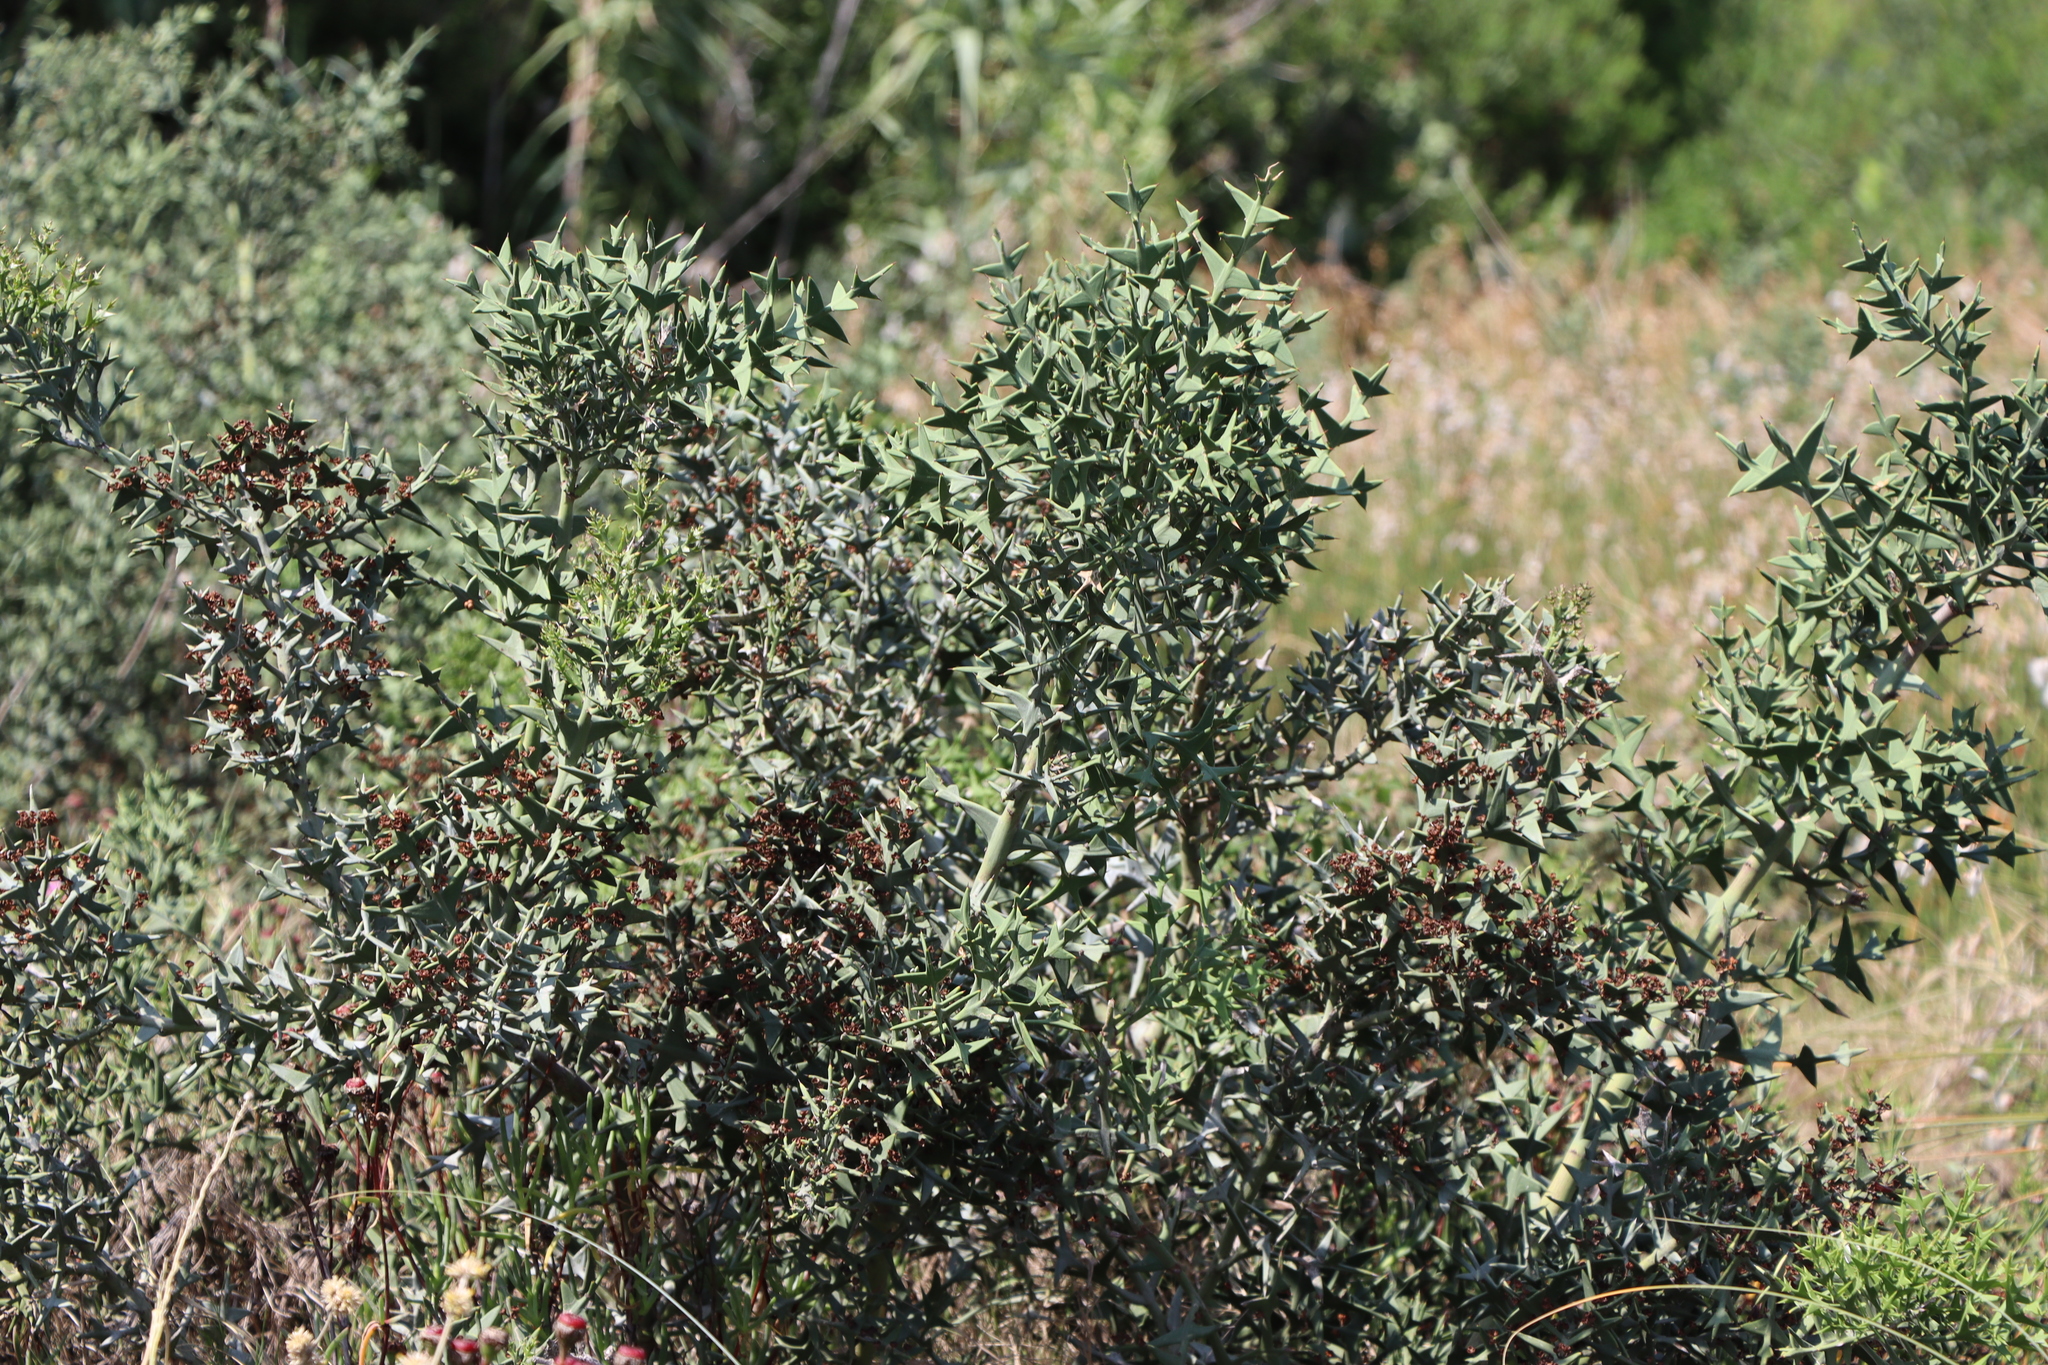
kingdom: Plantae
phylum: Tracheophyta
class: Magnoliopsida
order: Rosales
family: Rhamnaceae
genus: Colletia
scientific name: Colletia paradoxa
